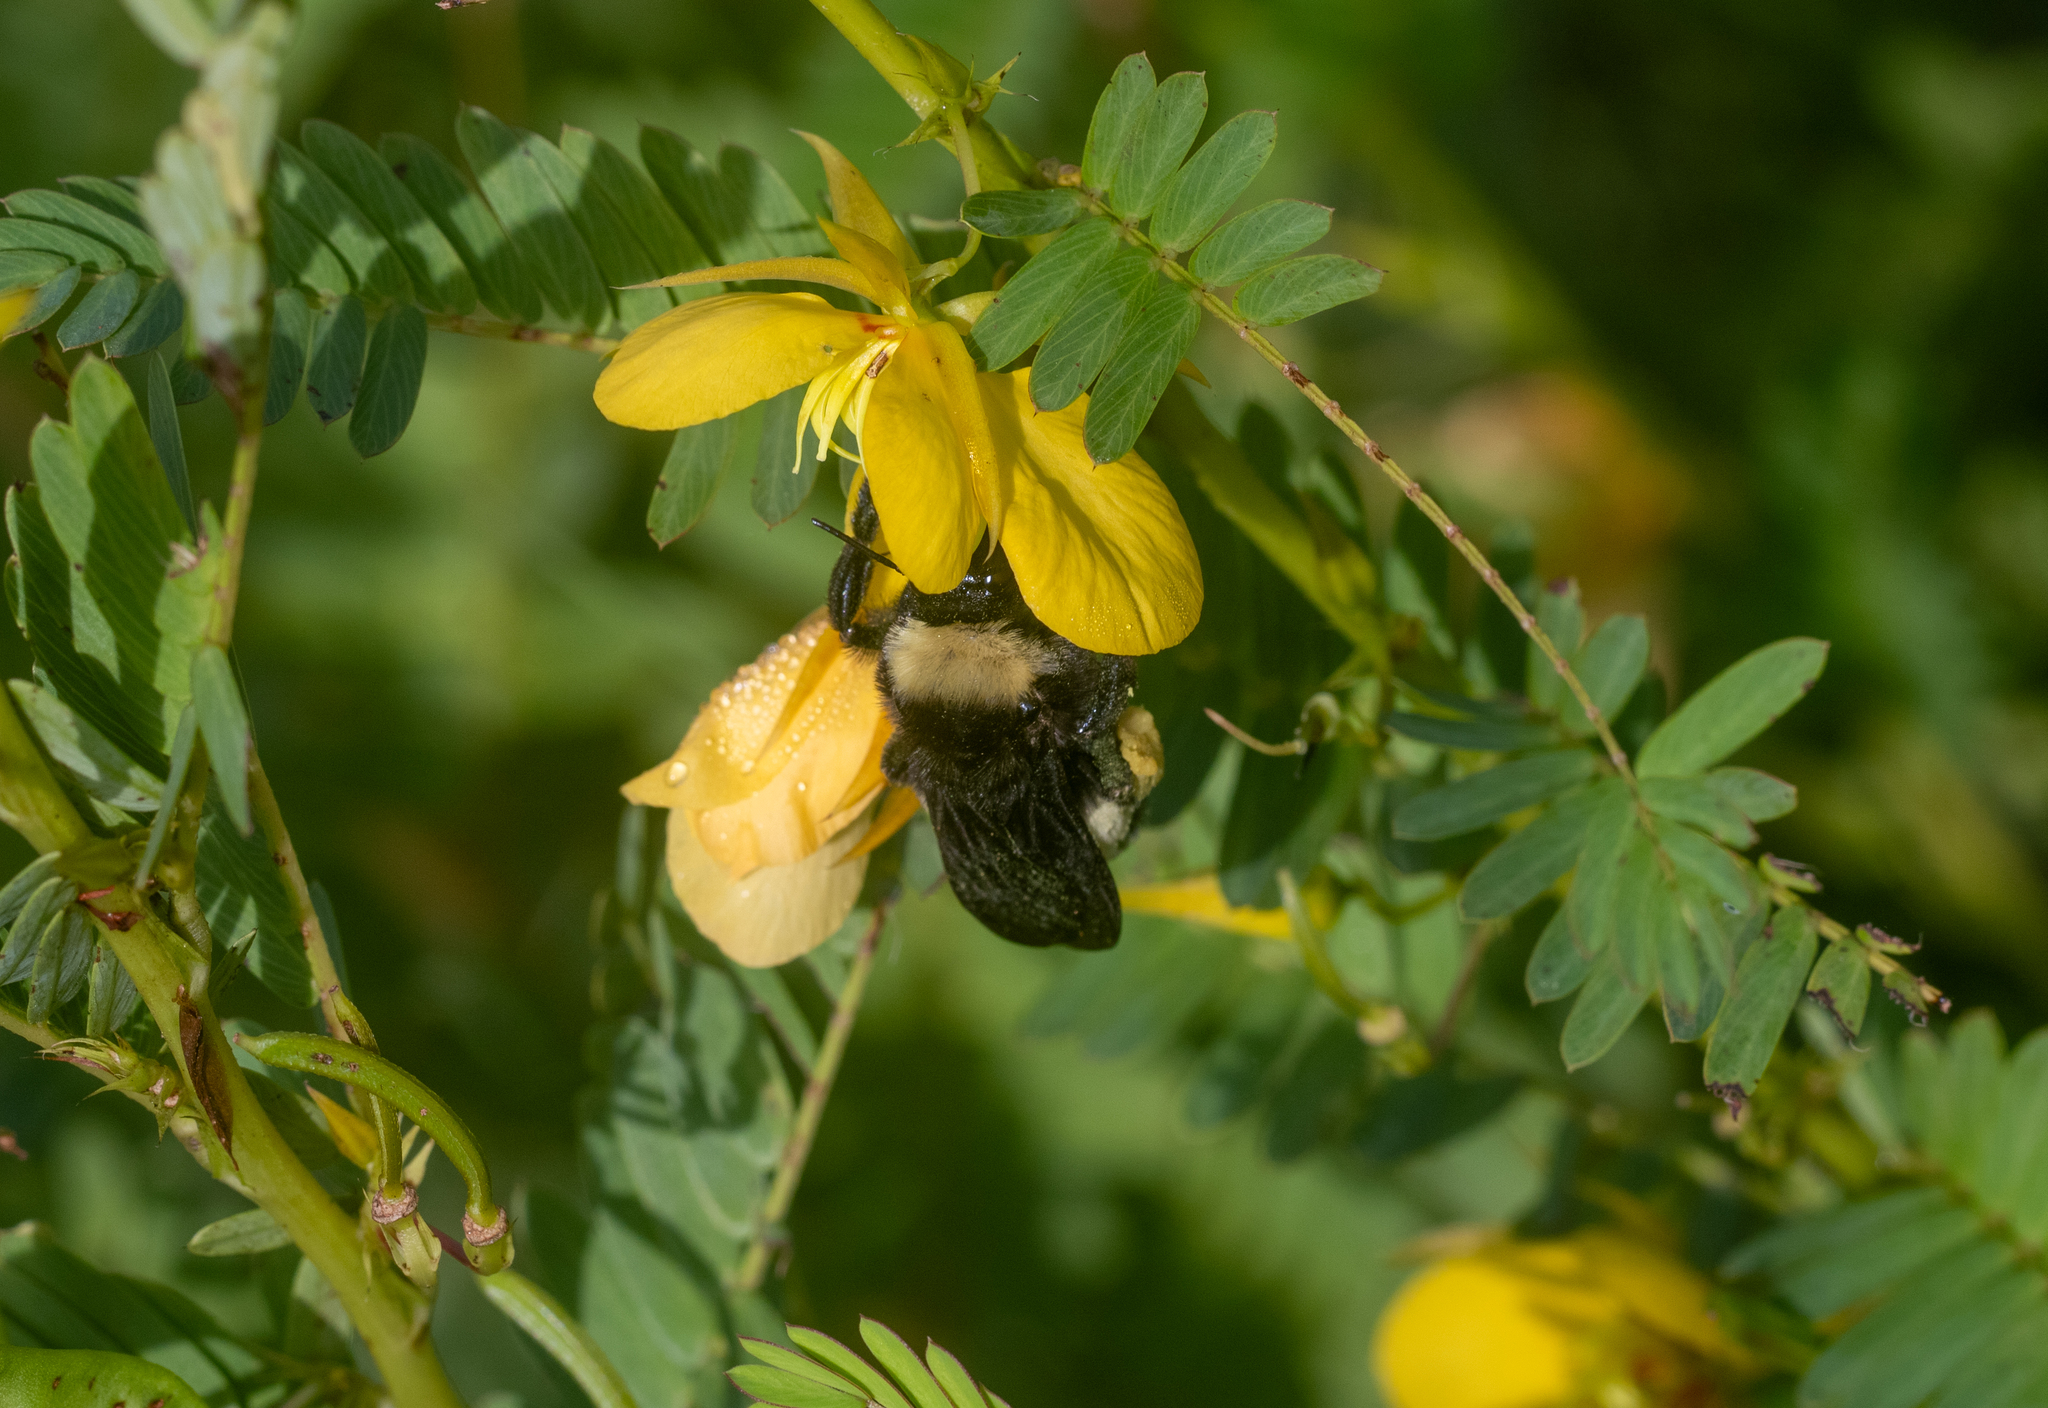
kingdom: Animalia
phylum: Arthropoda
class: Insecta
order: Hymenoptera
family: Apidae
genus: Bombus
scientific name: Bombus pensylvanicus
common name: Bumble bee
